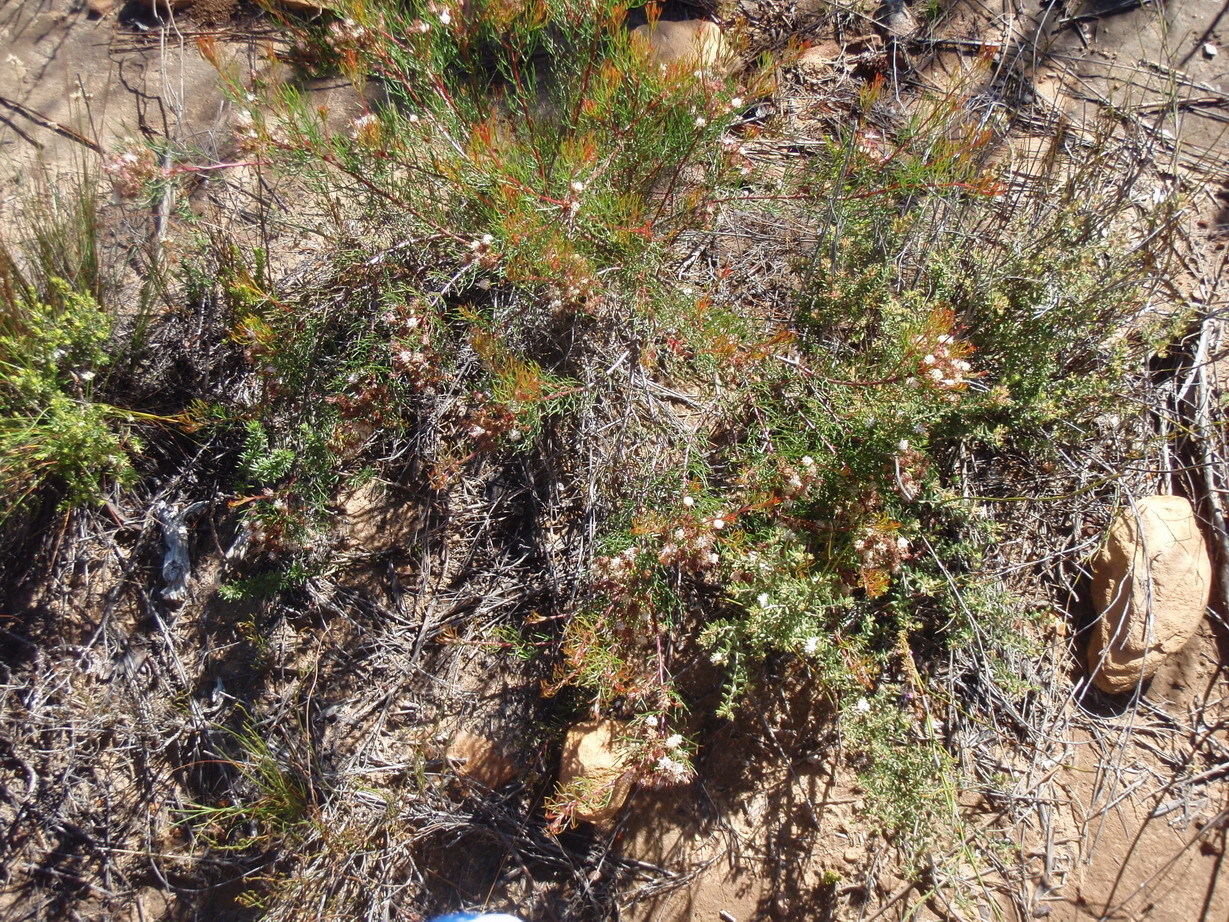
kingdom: Plantae
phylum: Tracheophyta
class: Magnoliopsida
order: Proteales
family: Proteaceae
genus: Serruria
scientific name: Serruria fasciflora
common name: Common pin spiderhead
